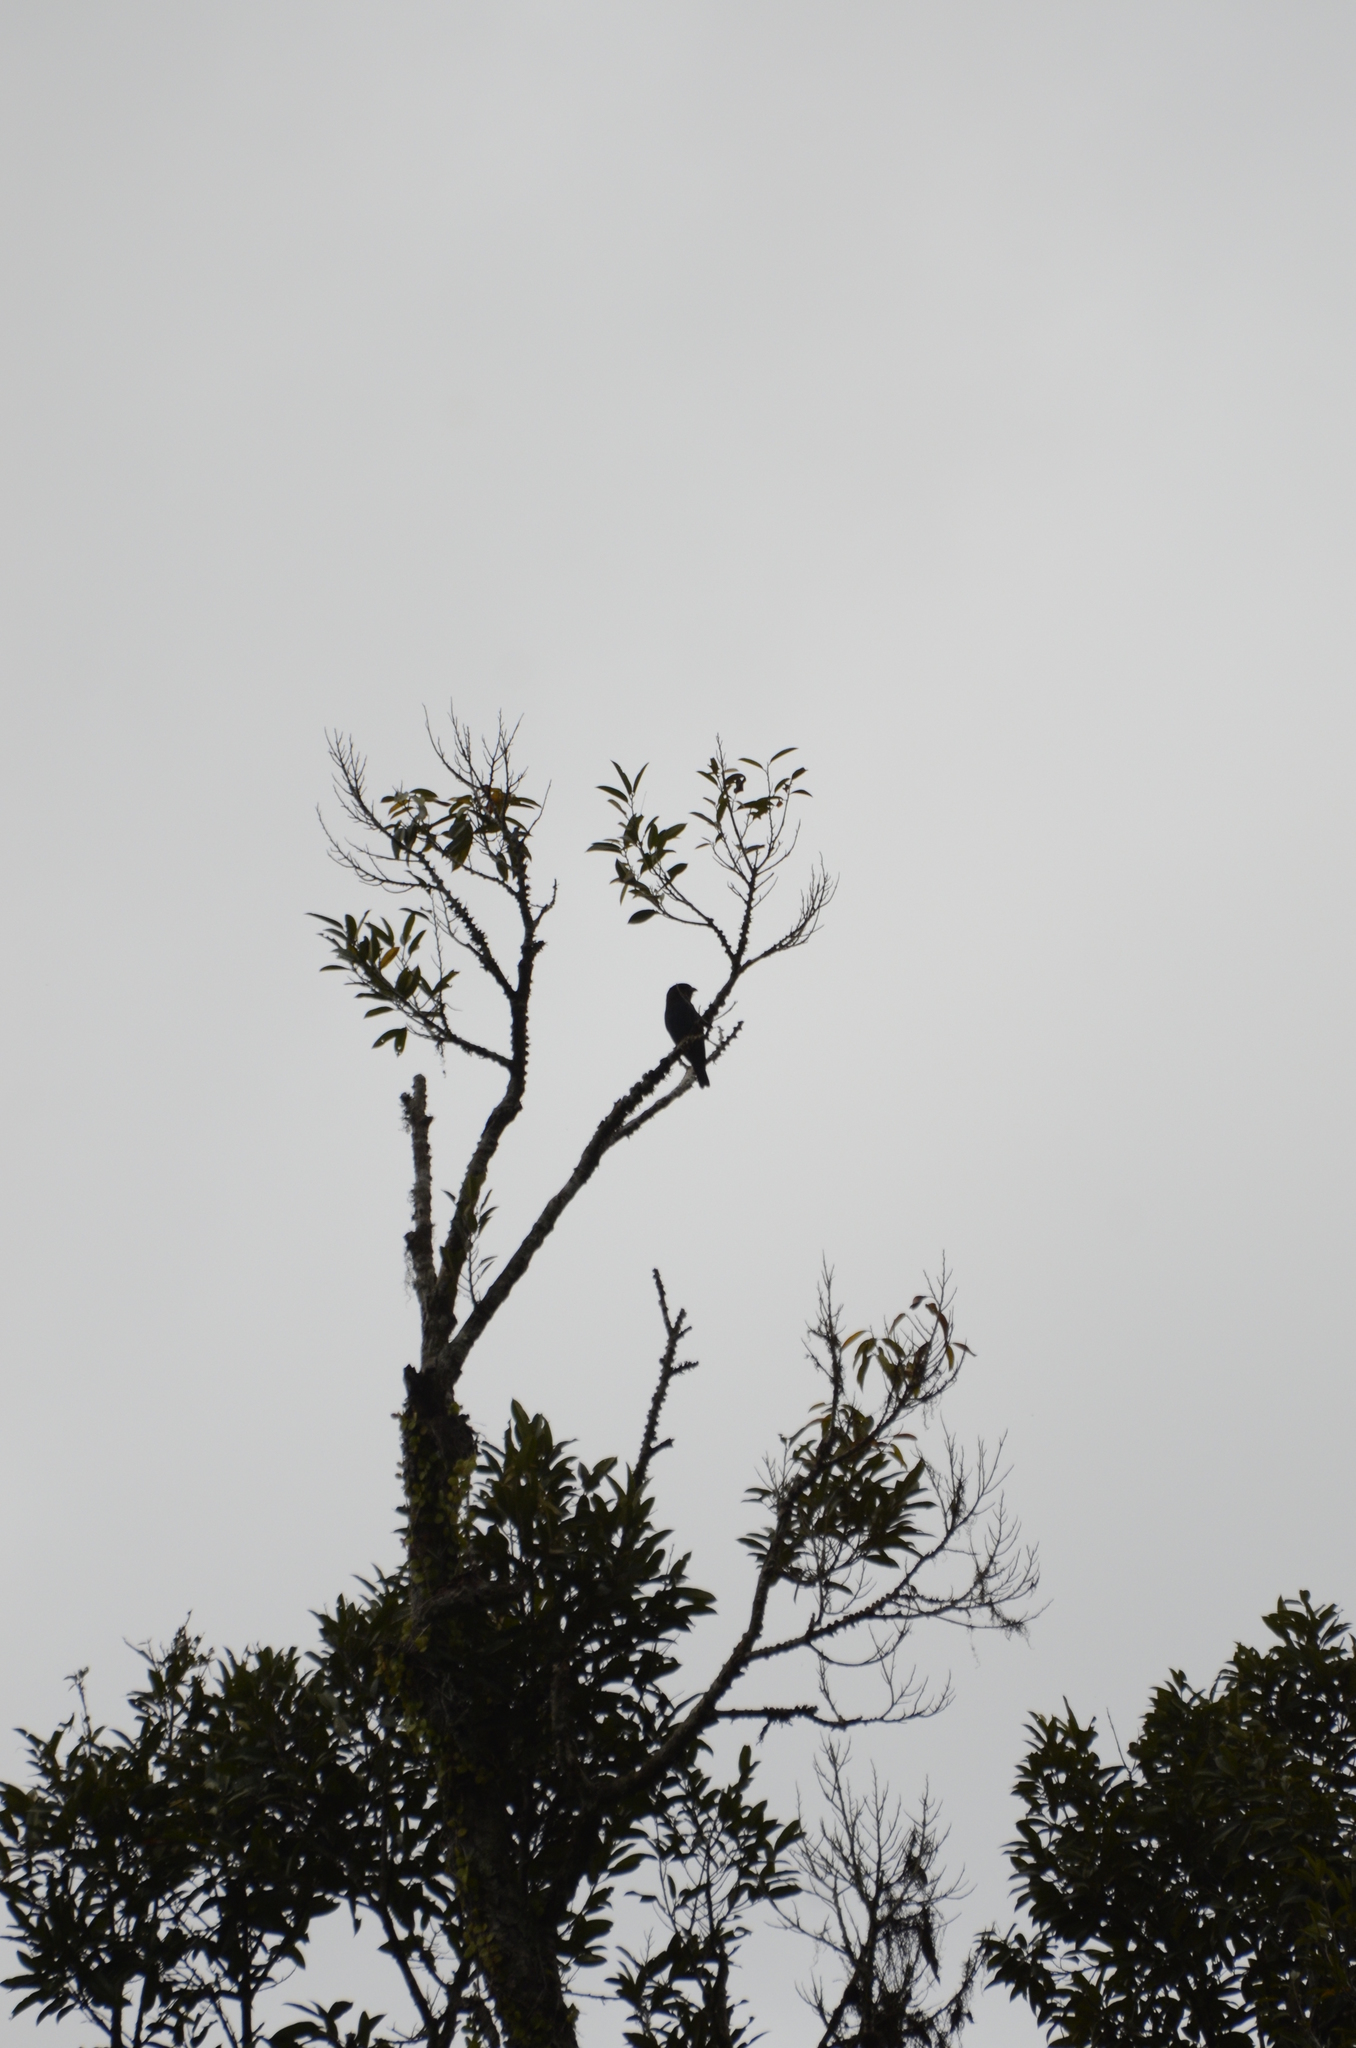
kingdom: Animalia
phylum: Chordata
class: Aves
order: Coraciiformes
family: Coraciidae
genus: Eurystomus
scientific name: Eurystomus orientalis
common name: Oriental dollarbird
